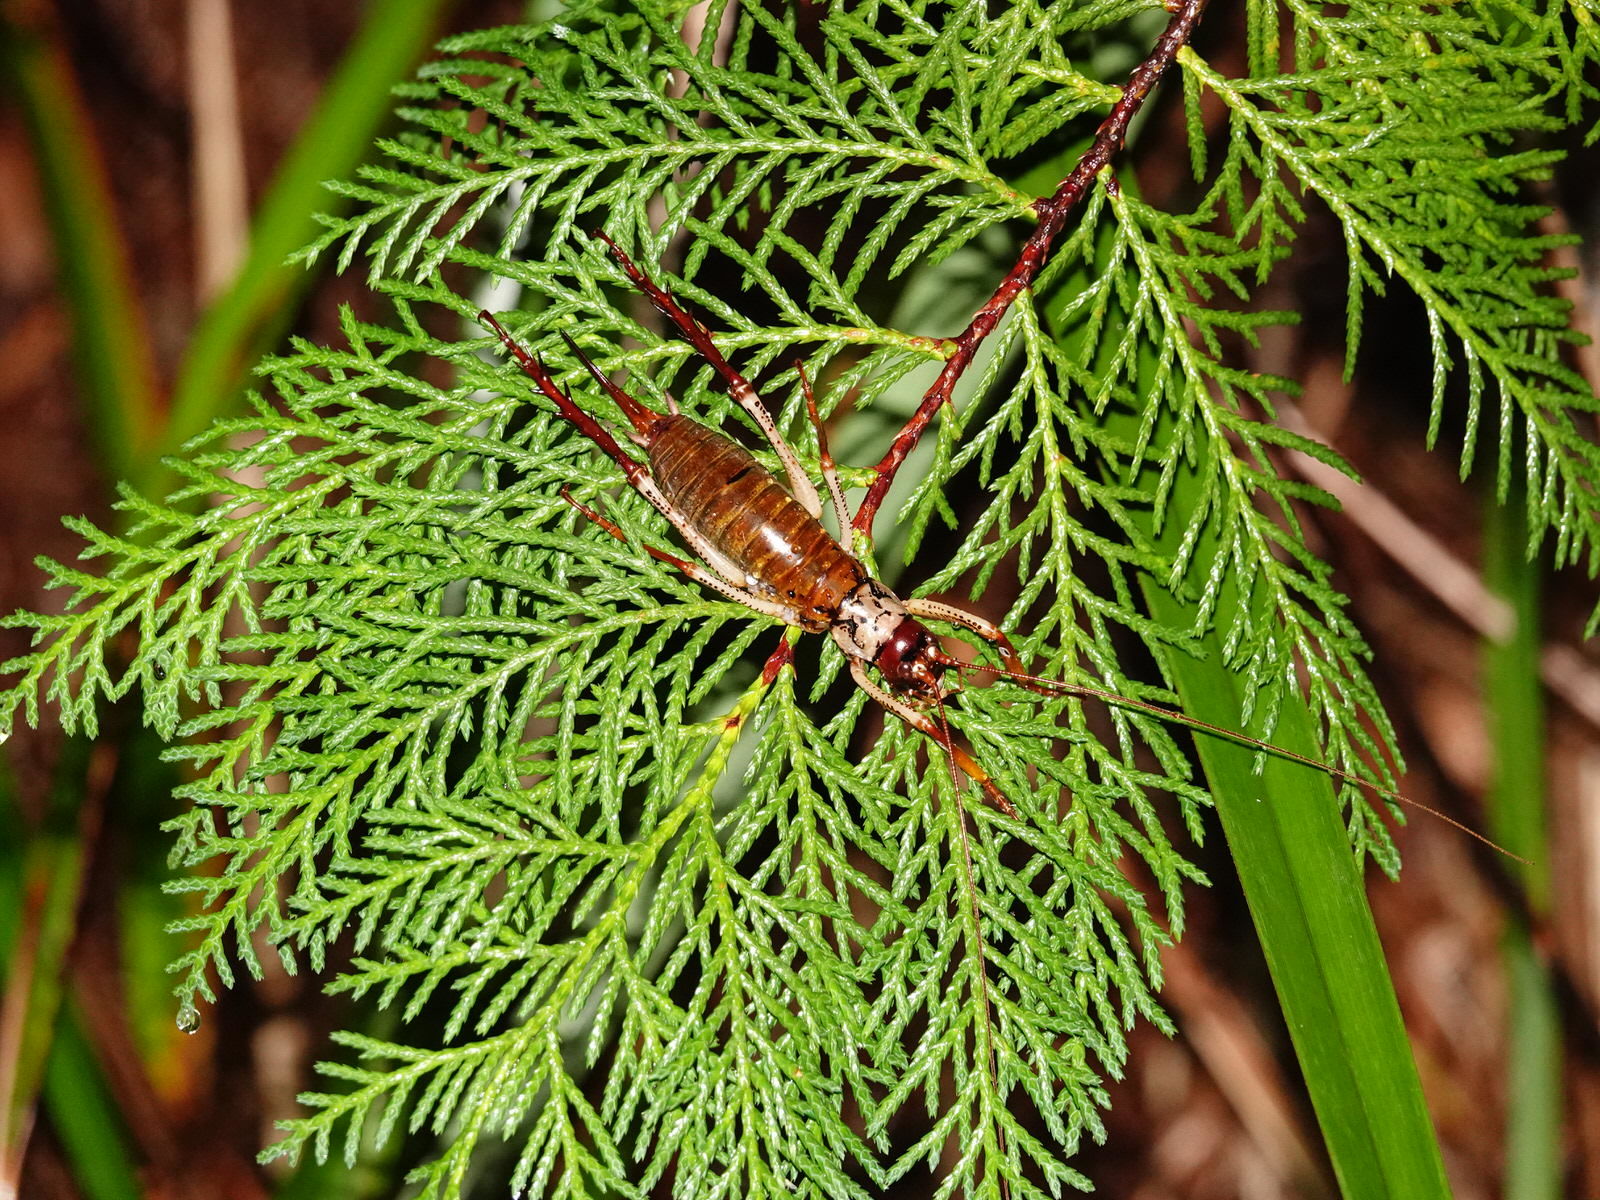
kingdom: Animalia
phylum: Arthropoda
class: Insecta
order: Orthoptera
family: Anostostomatidae
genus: Hemideina
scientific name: Hemideina thoracica
